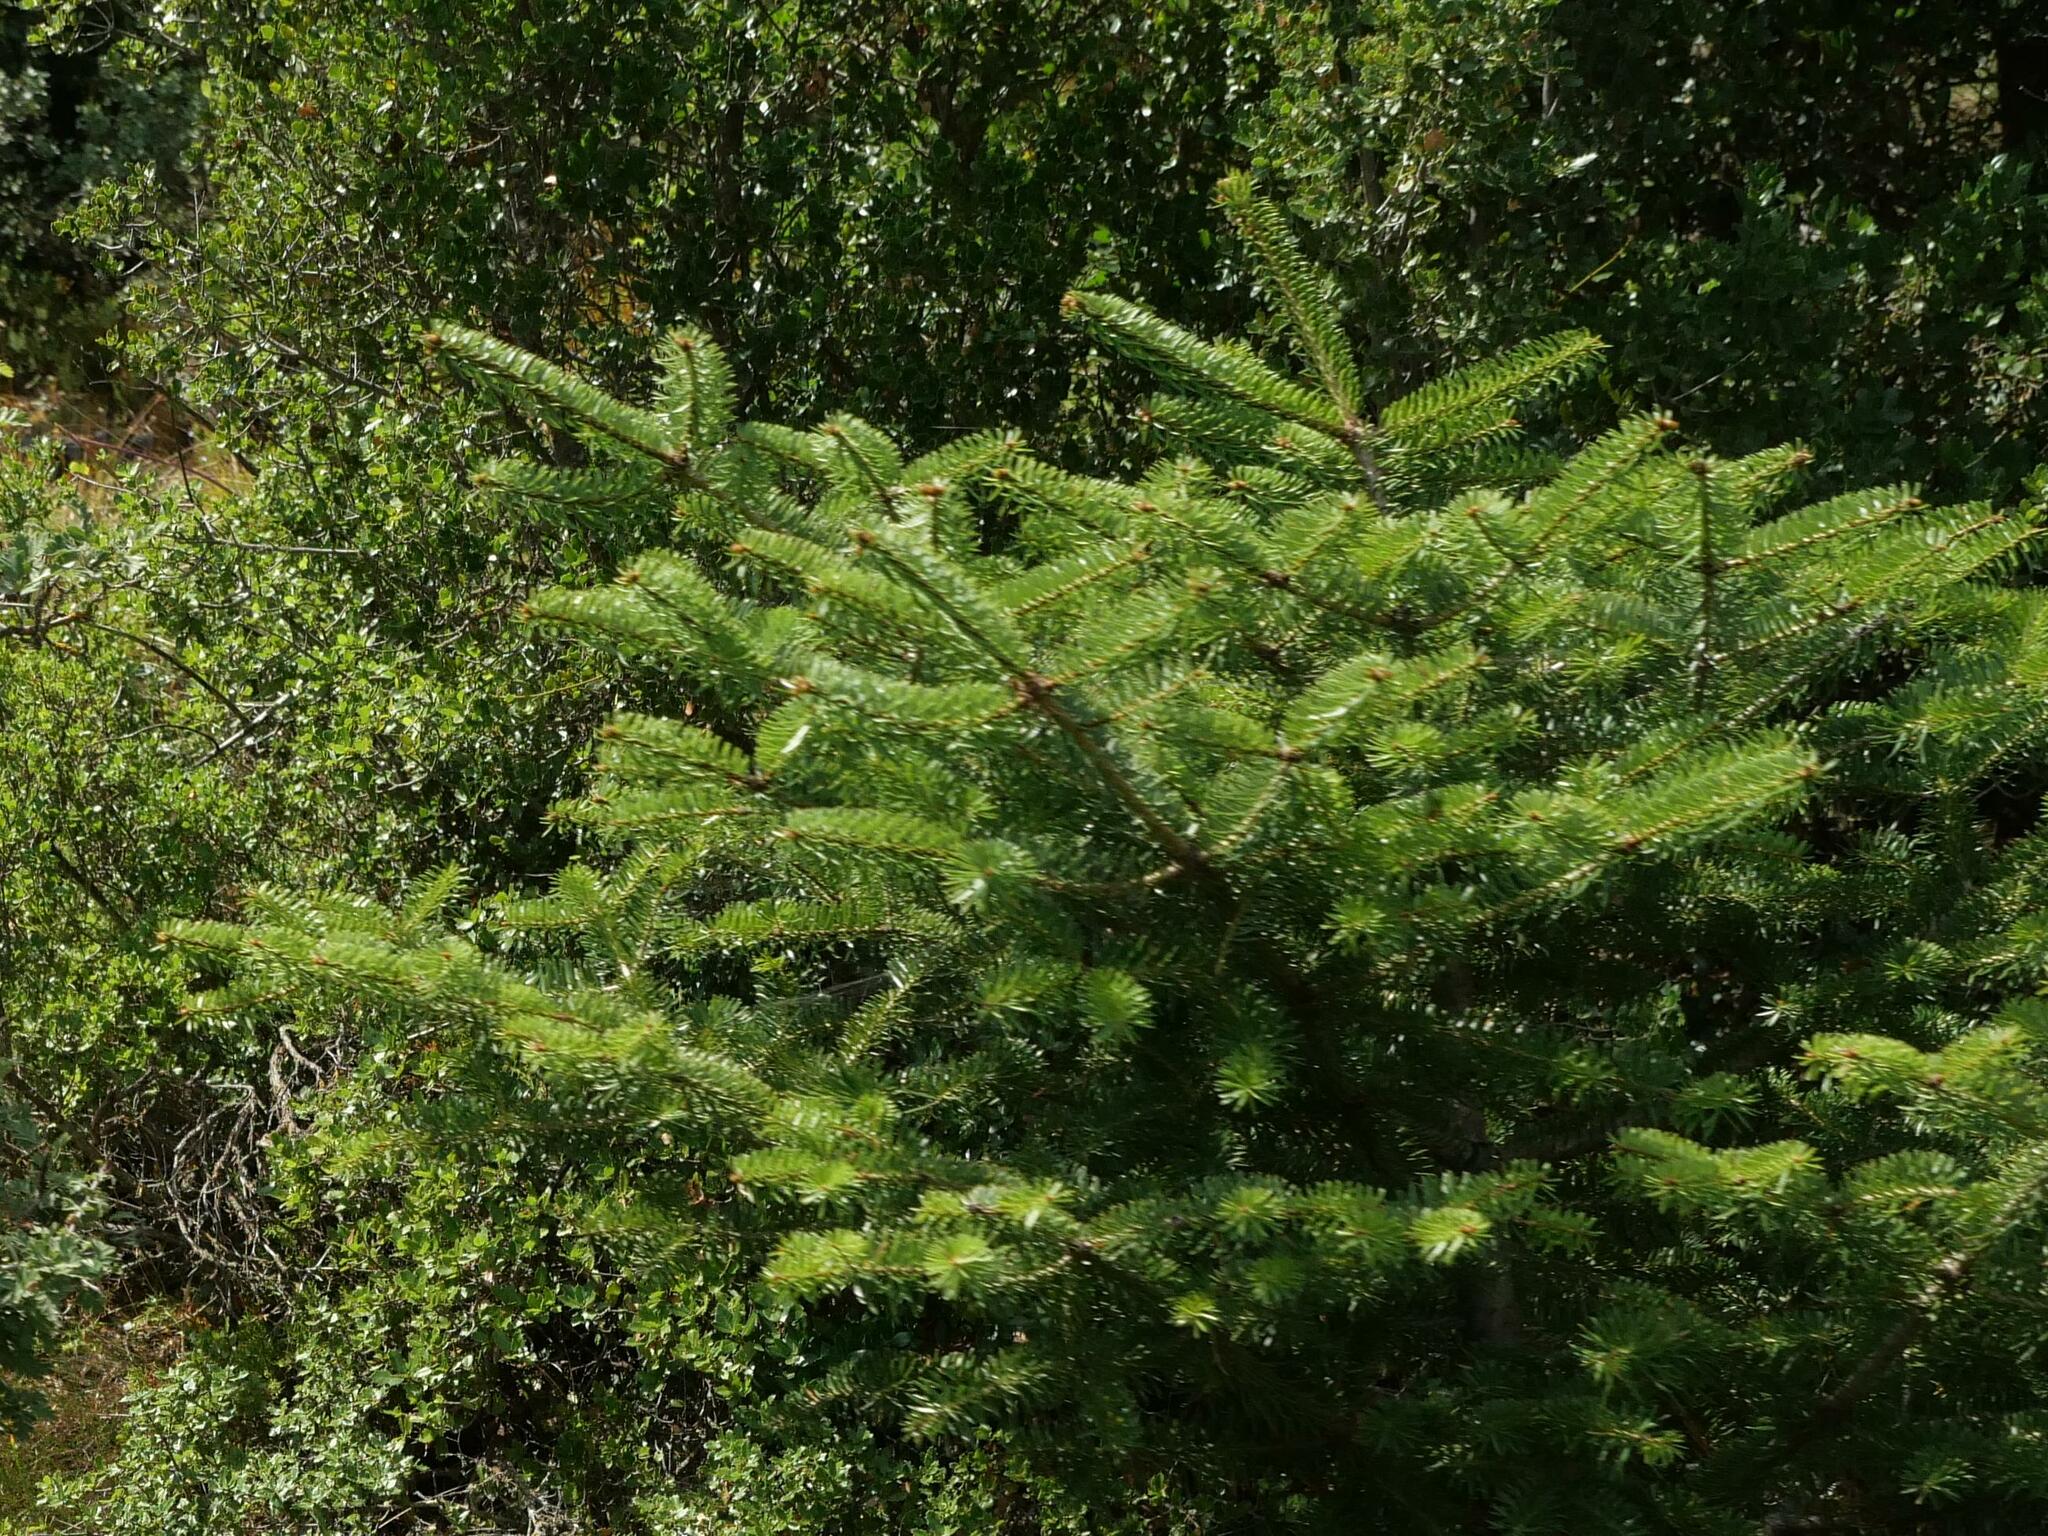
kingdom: Plantae
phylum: Tracheophyta
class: Pinopsida
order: Pinales
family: Pinaceae
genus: Abies
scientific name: Abies cephalonica
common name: Greek fir
